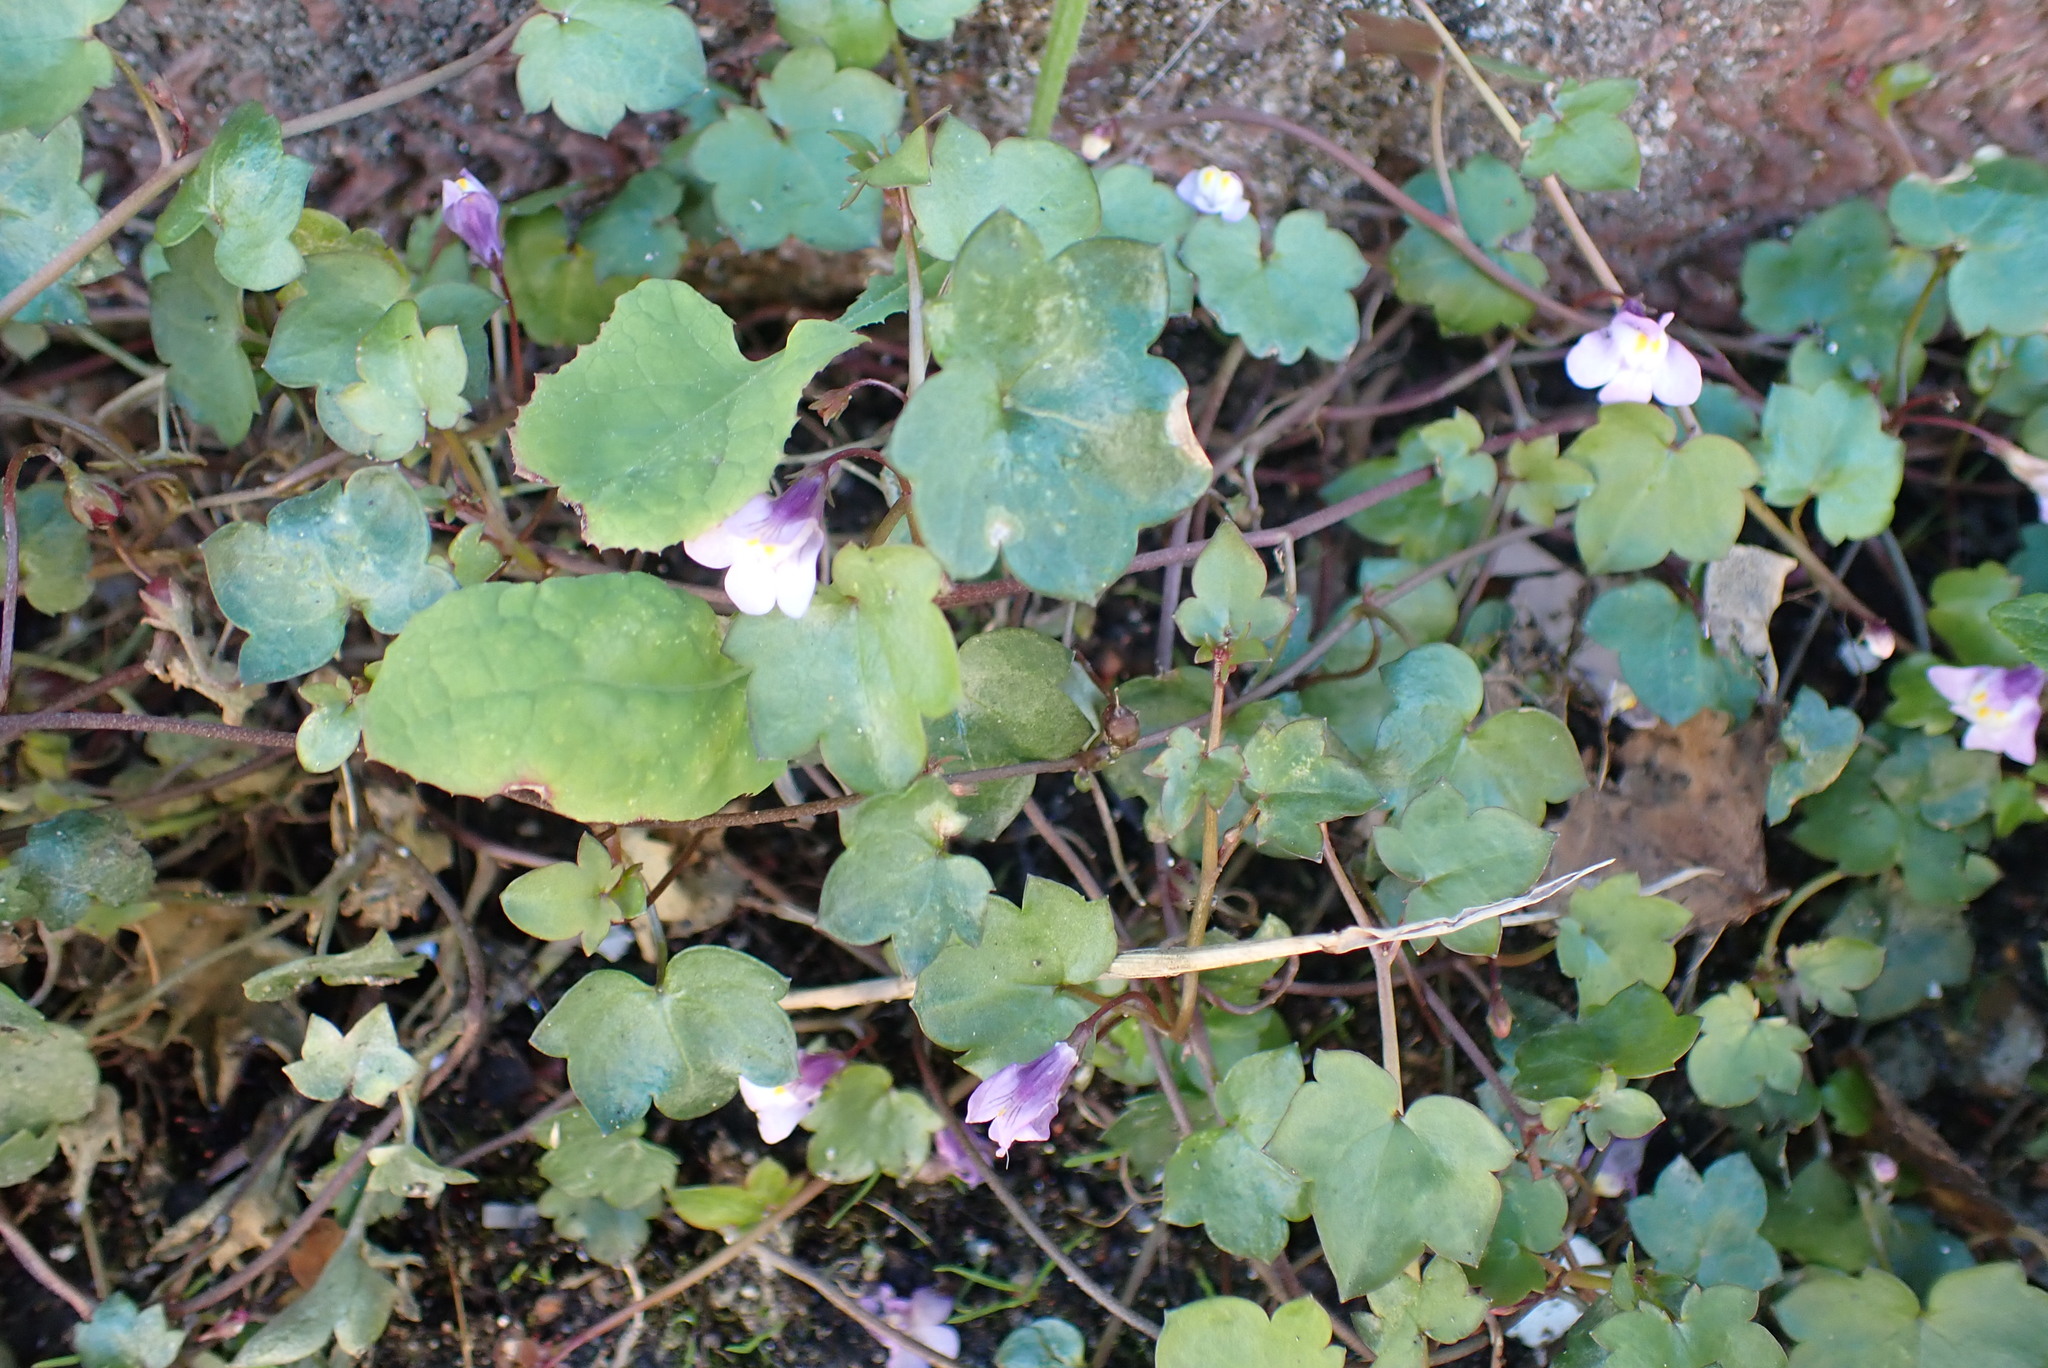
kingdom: Plantae
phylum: Tracheophyta
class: Magnoliopsida
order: Lamiales
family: Plantaginaceae
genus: Cymbalaria
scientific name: Cymbalaria muralis
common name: Ivy-leaved toadflax
